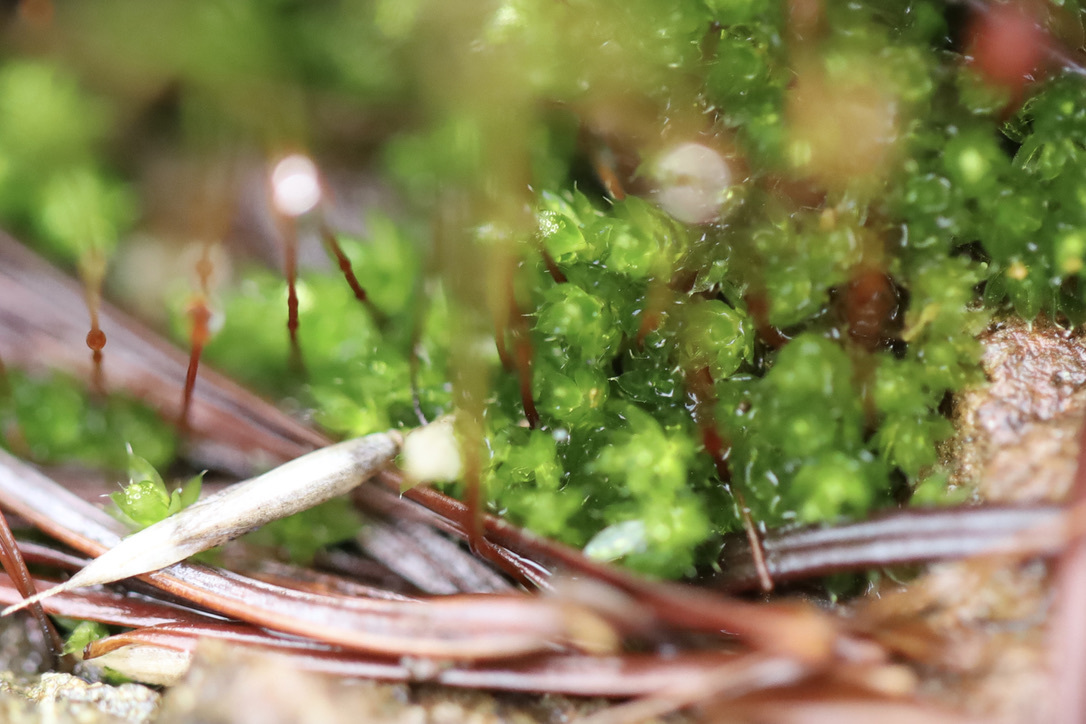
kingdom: Plantae
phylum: Bryophyta
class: Bryopsida
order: Bryales
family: Bryaceae
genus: Rosulabryum
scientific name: Rosulabryum capillare
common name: Capillary thread-moss
